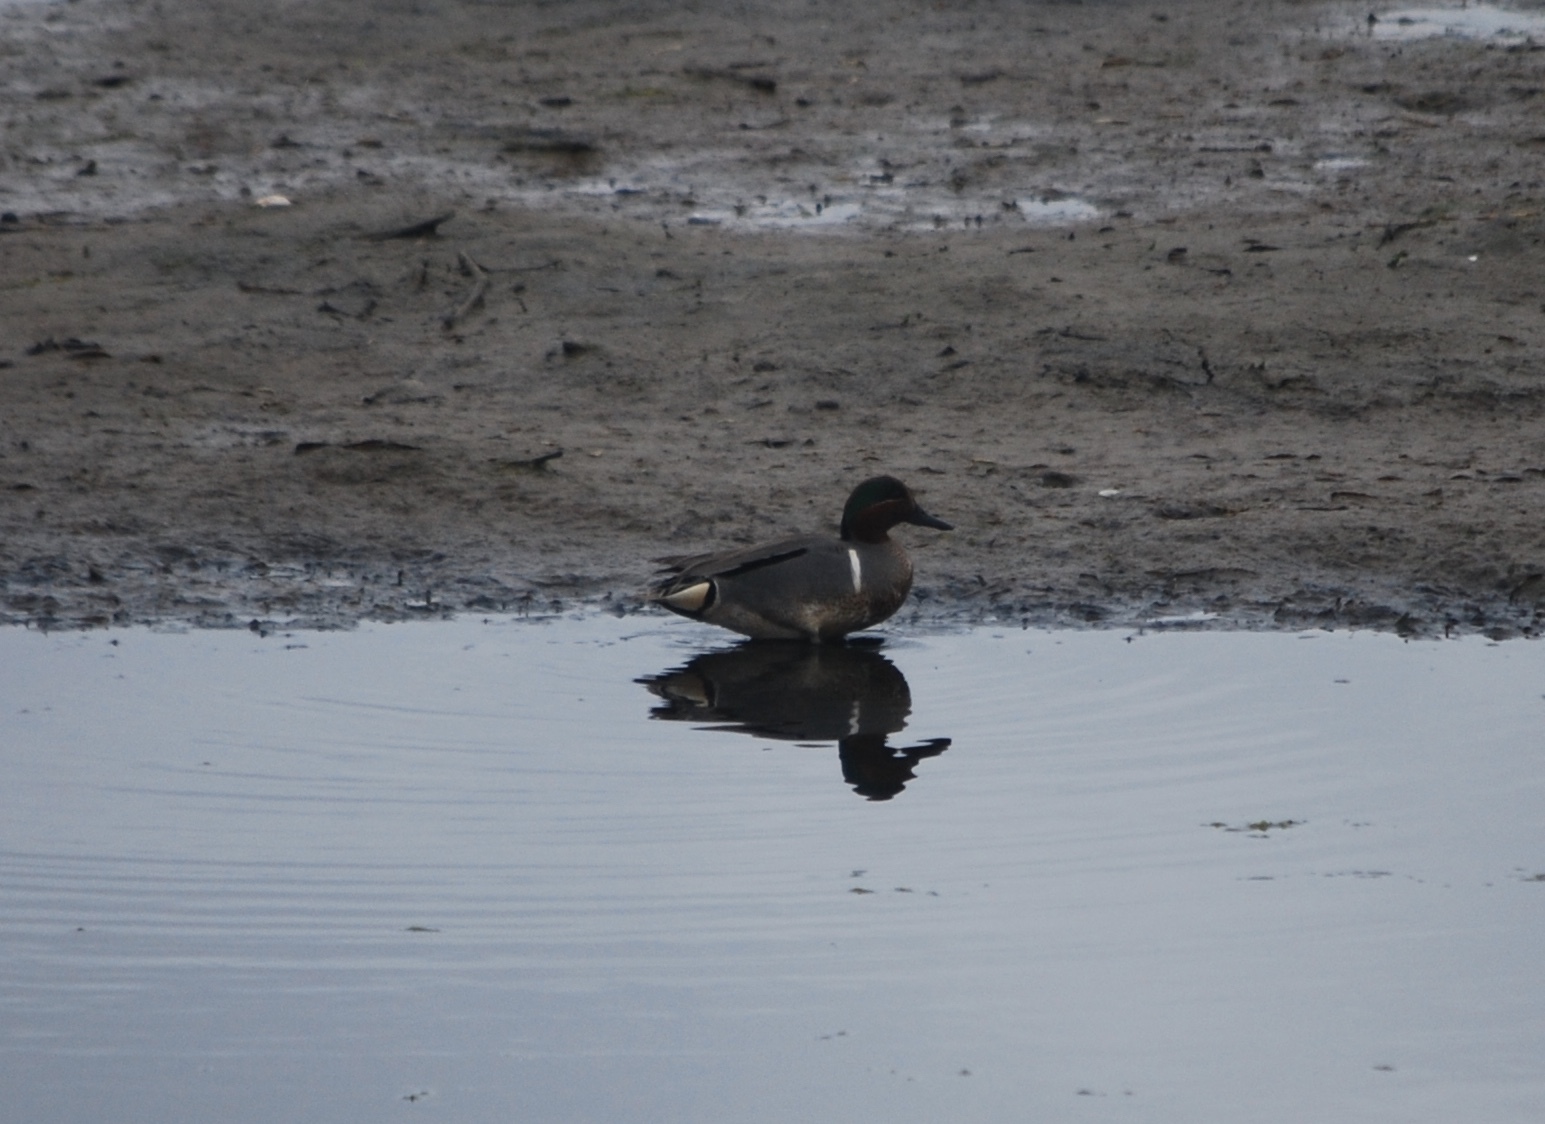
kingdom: Animalia
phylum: Chordata
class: Aves
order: Anseriformes
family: Anatidae
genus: Anas
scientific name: Anas crecca
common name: Eurasian teal
